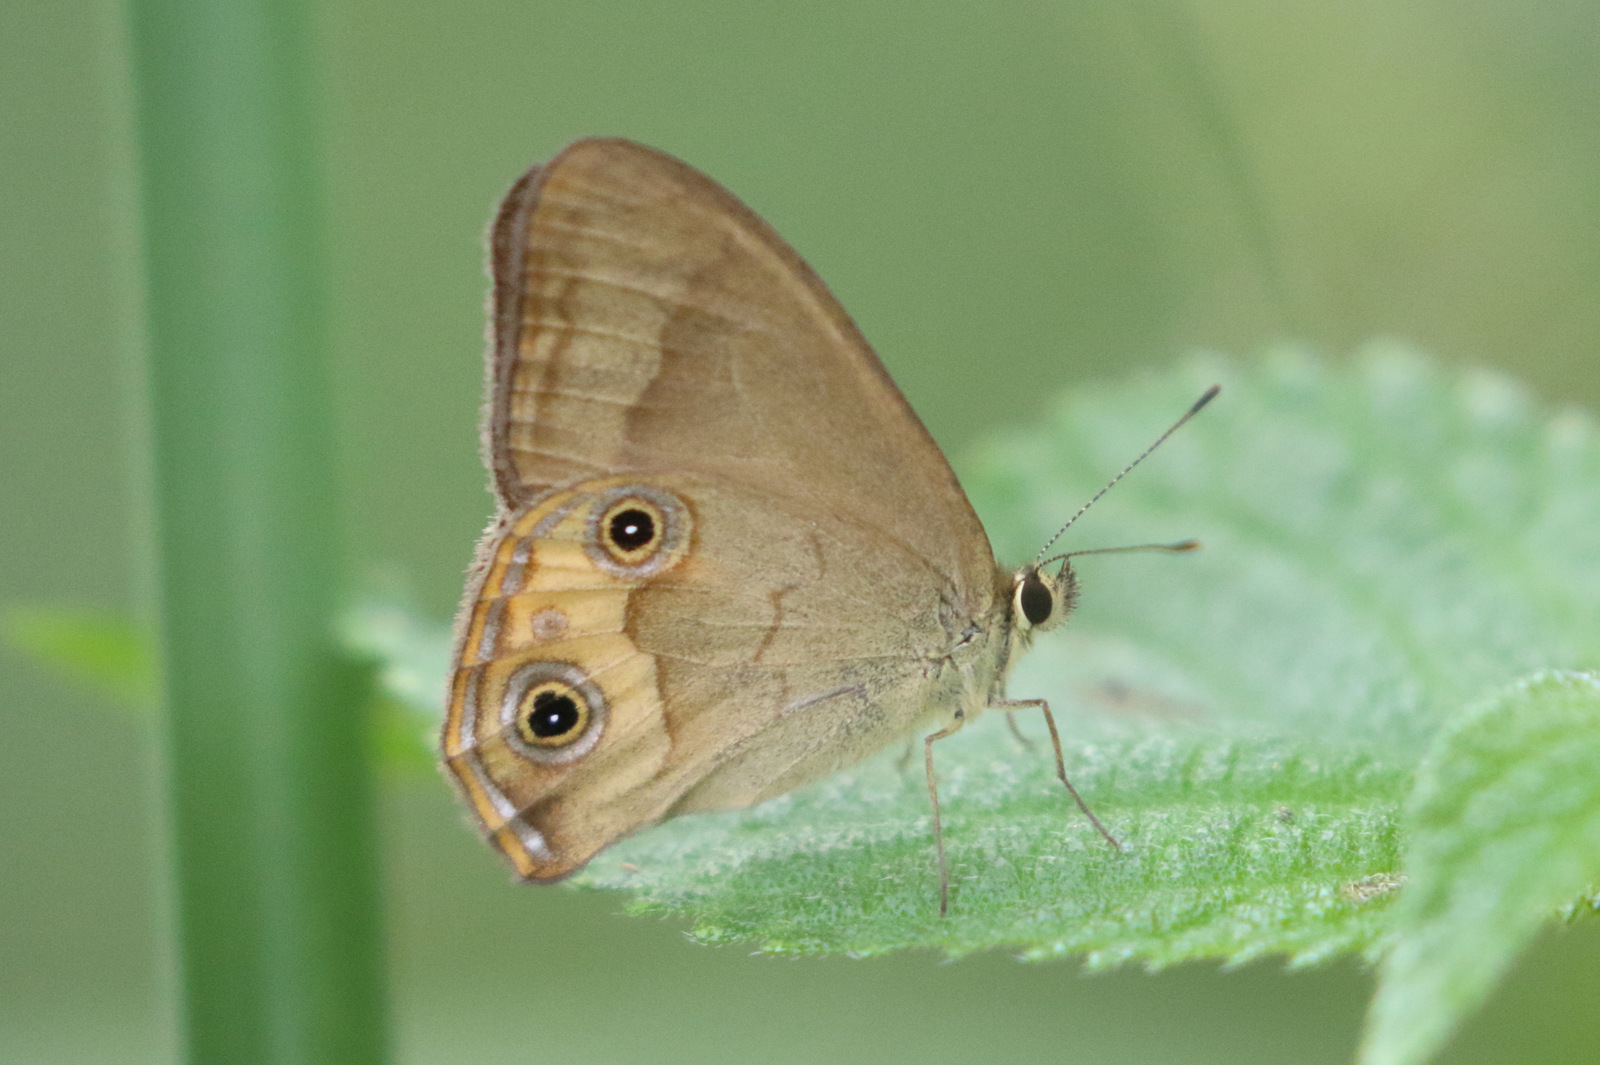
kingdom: Animalia
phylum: Arthropoda
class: Insecta
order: Lepidoptera
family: Nymphalidae
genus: Hypocysta
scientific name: Hypocysta metirius
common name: Brown ringlet
